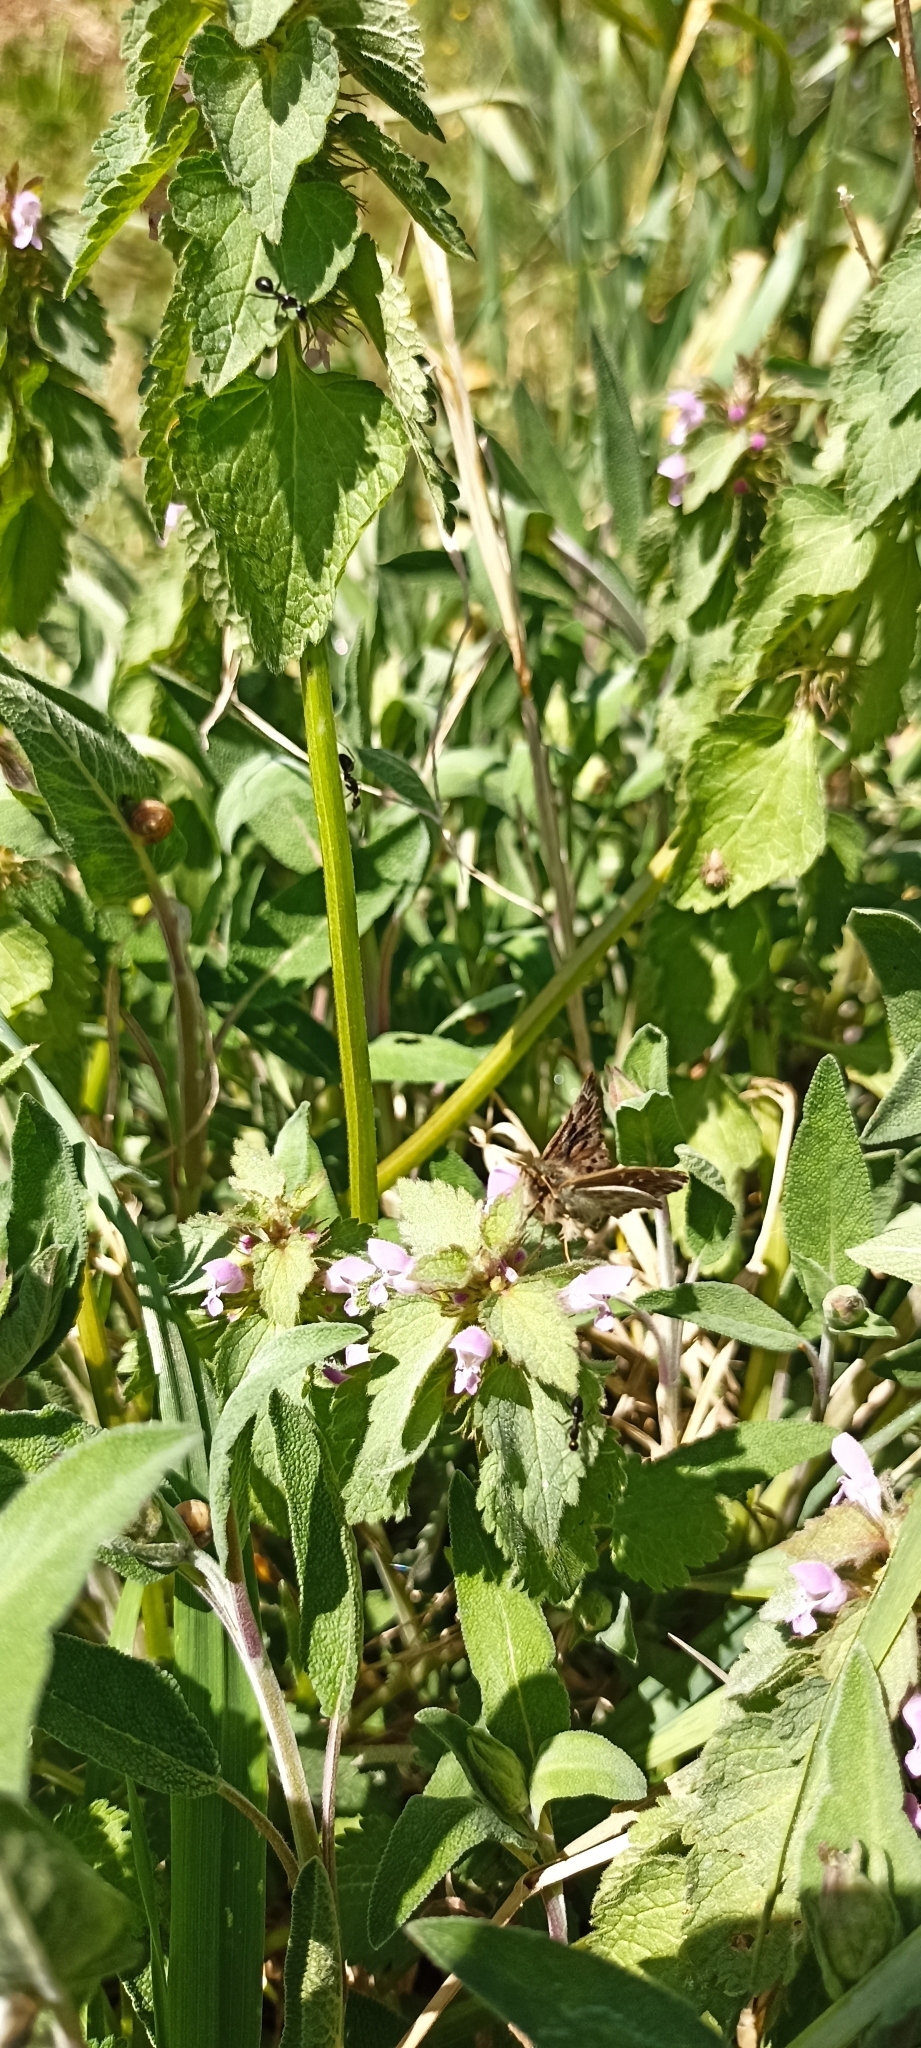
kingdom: Animalia
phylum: Arthropoda
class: Insecta
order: Lepidoptera
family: Hesperiidae
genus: Carcharodus
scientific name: Carcharodus alceae
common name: Mallow skipper
